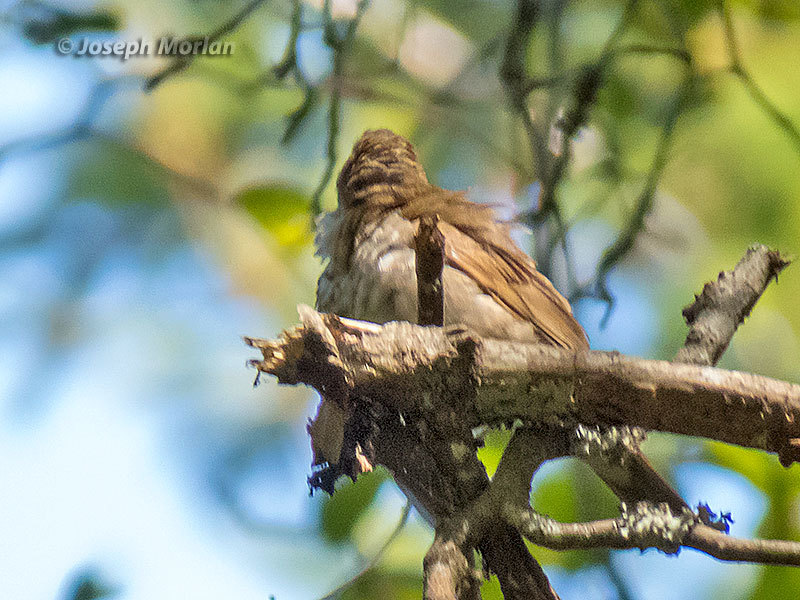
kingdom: Animalia
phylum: Chordata
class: Aves
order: Passeriformes
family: Turdidae
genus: Catharus
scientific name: Catharus ustulatus
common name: Swainson's thrush
